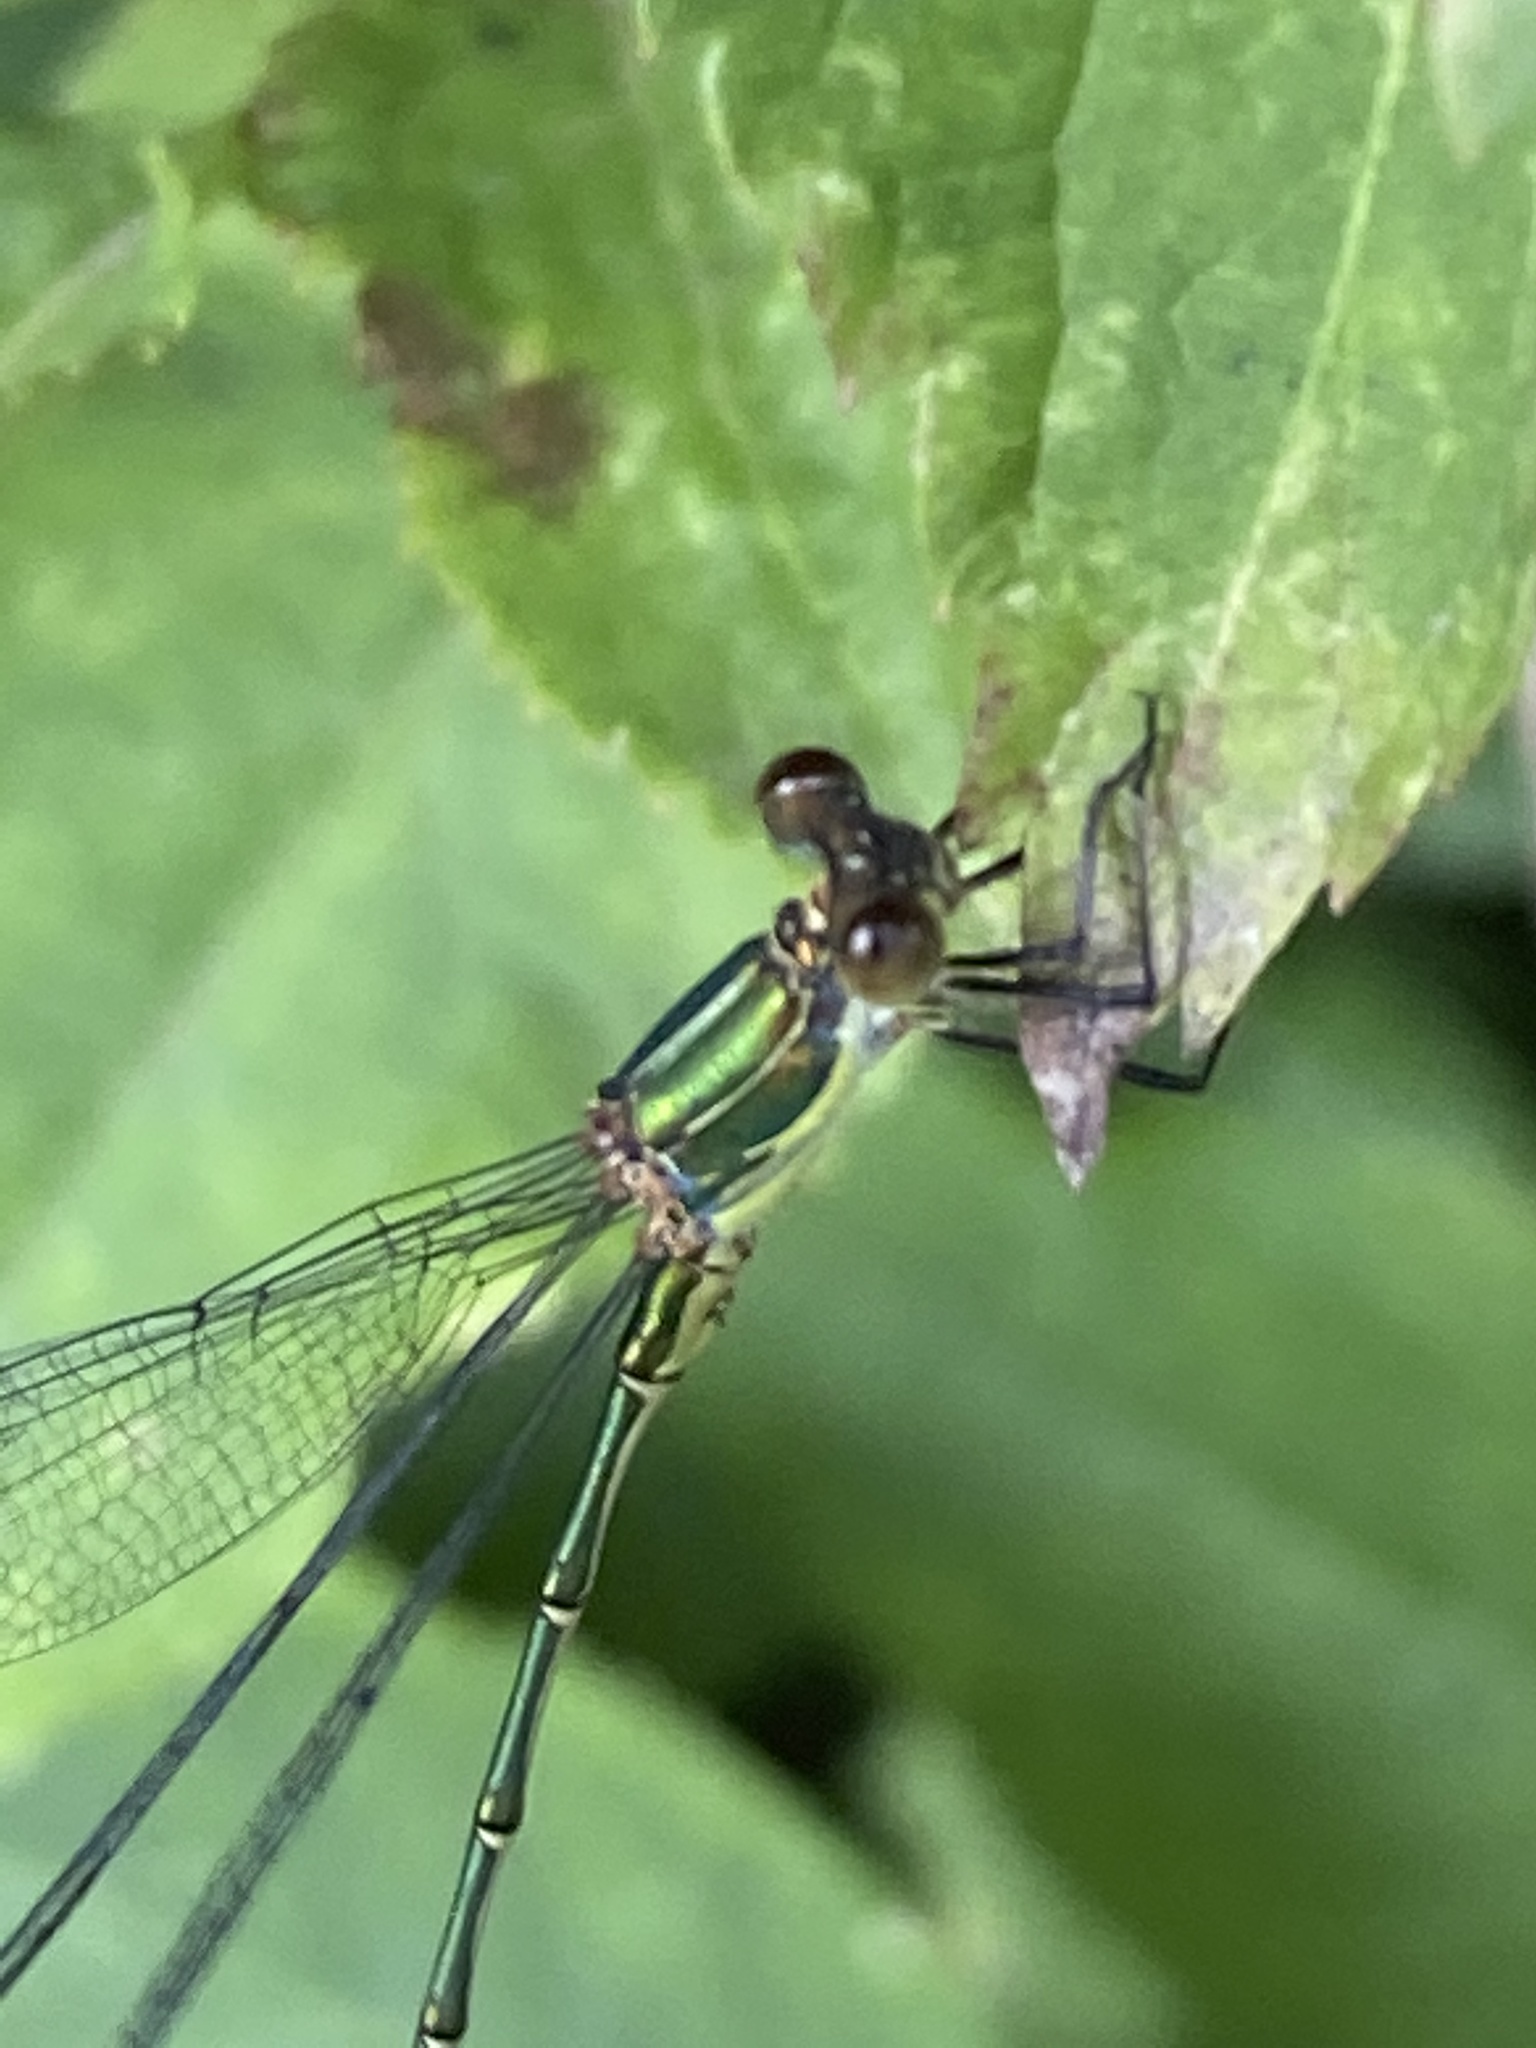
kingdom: Animalia
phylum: Arthropoda
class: Insecta
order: Odonata
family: Lestidae
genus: Chalcolestes
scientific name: Chalcolestes viridis
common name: Green emerald damselfly
